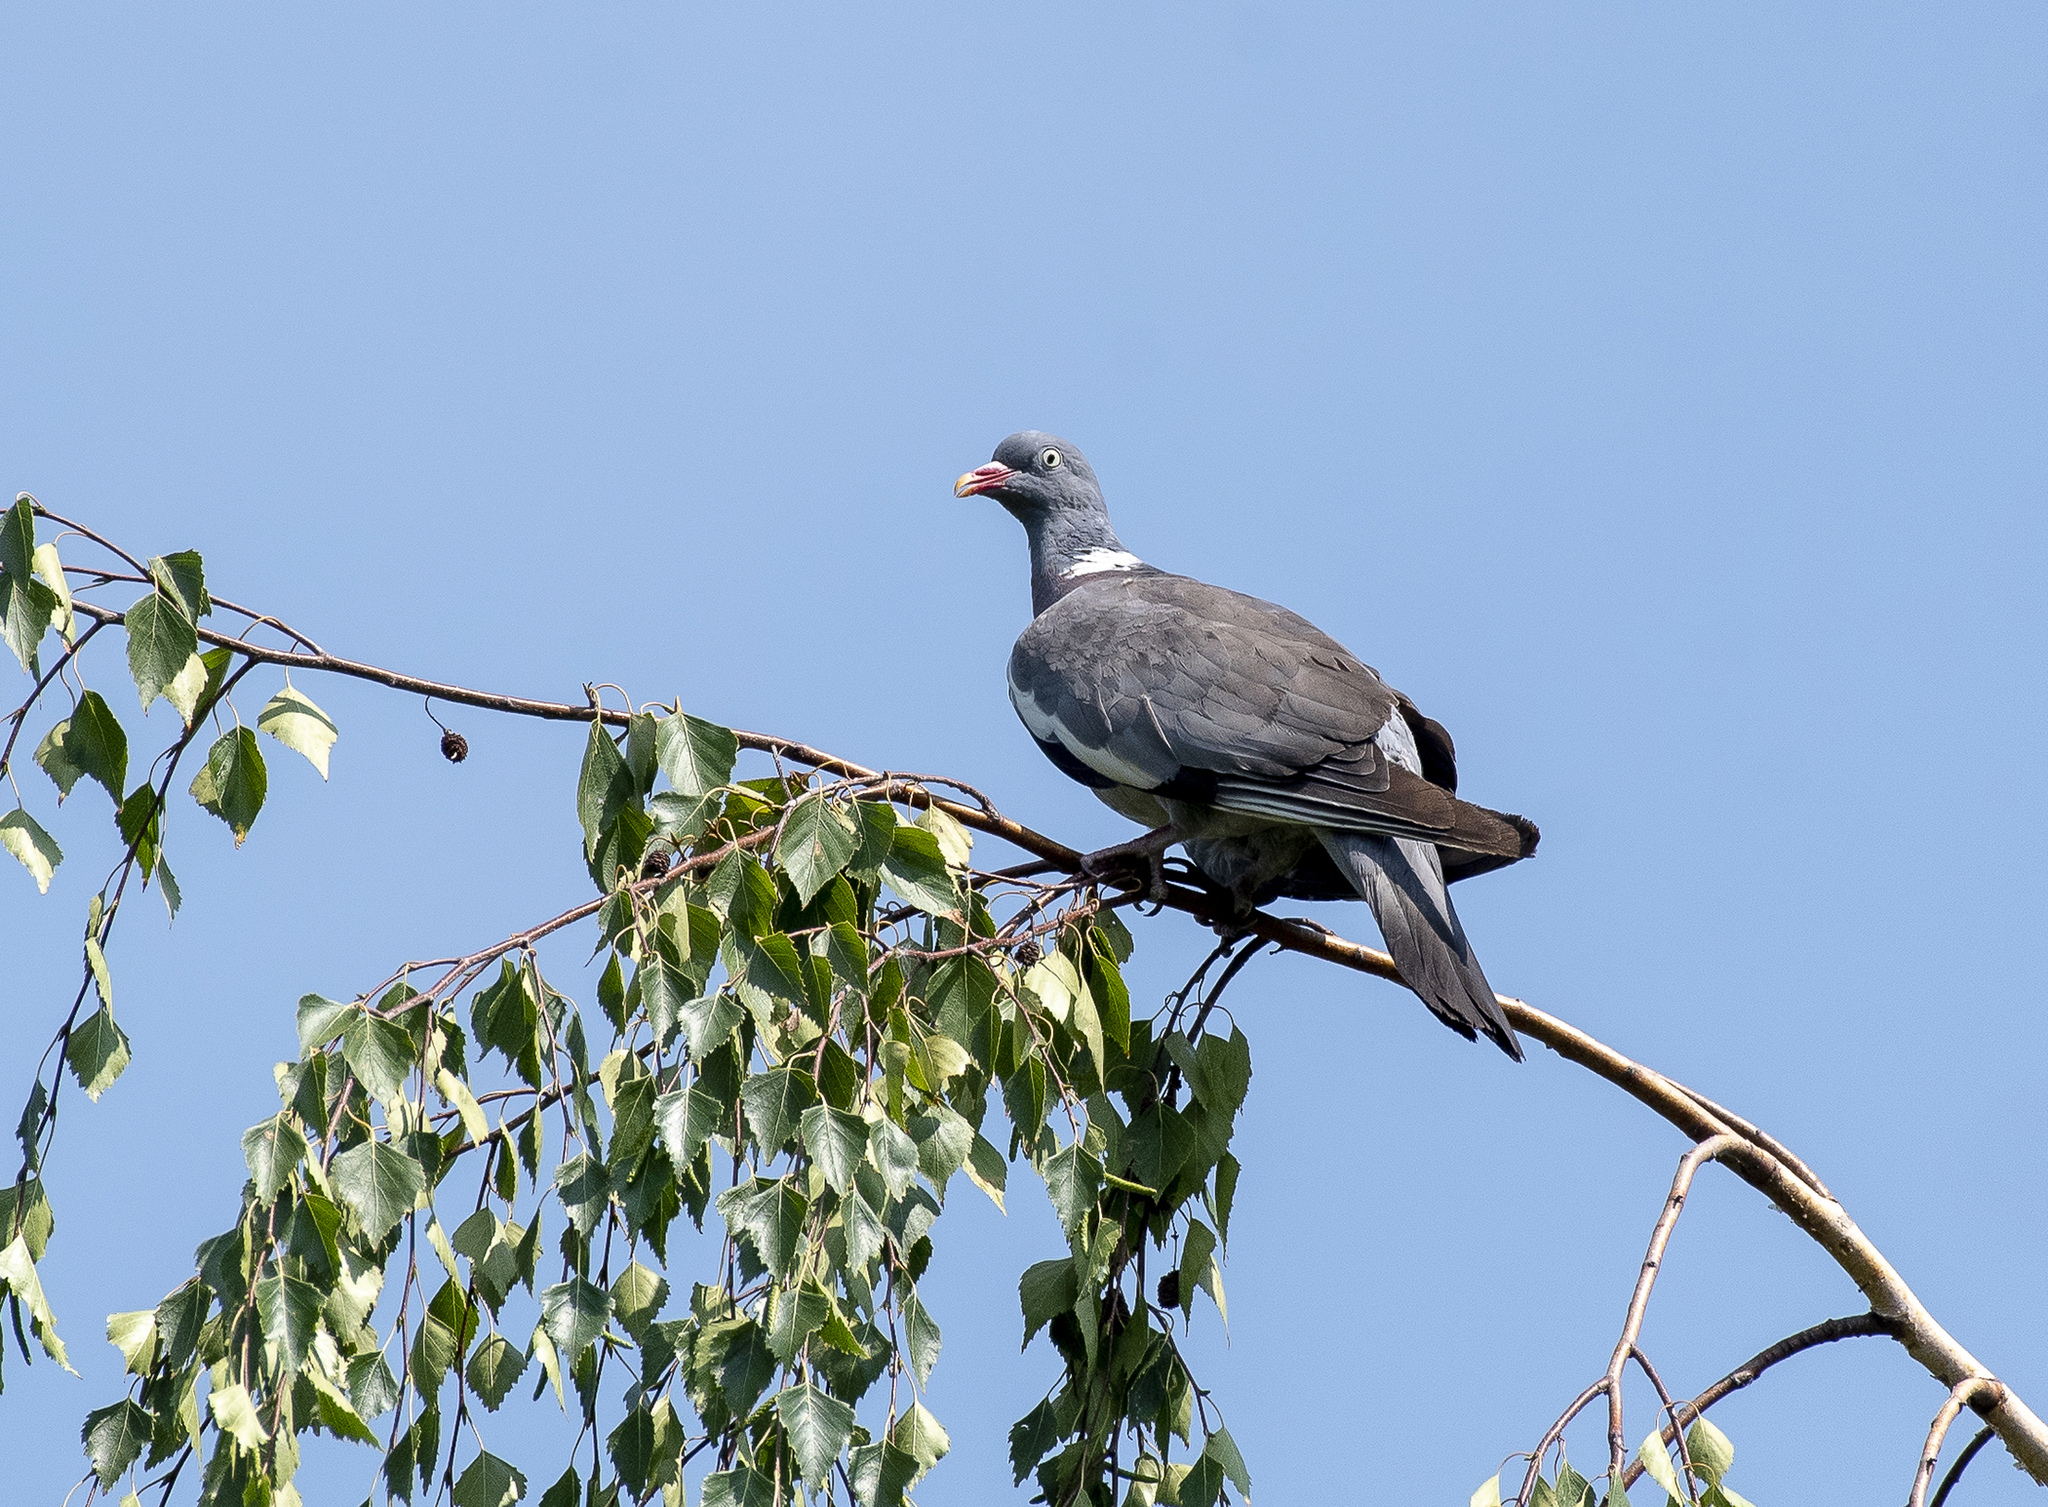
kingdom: Animalia
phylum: Chordata
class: Aves
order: Columbiformes
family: Columbidae
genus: Columba
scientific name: Columba palumbus
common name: Common wood pigeon
